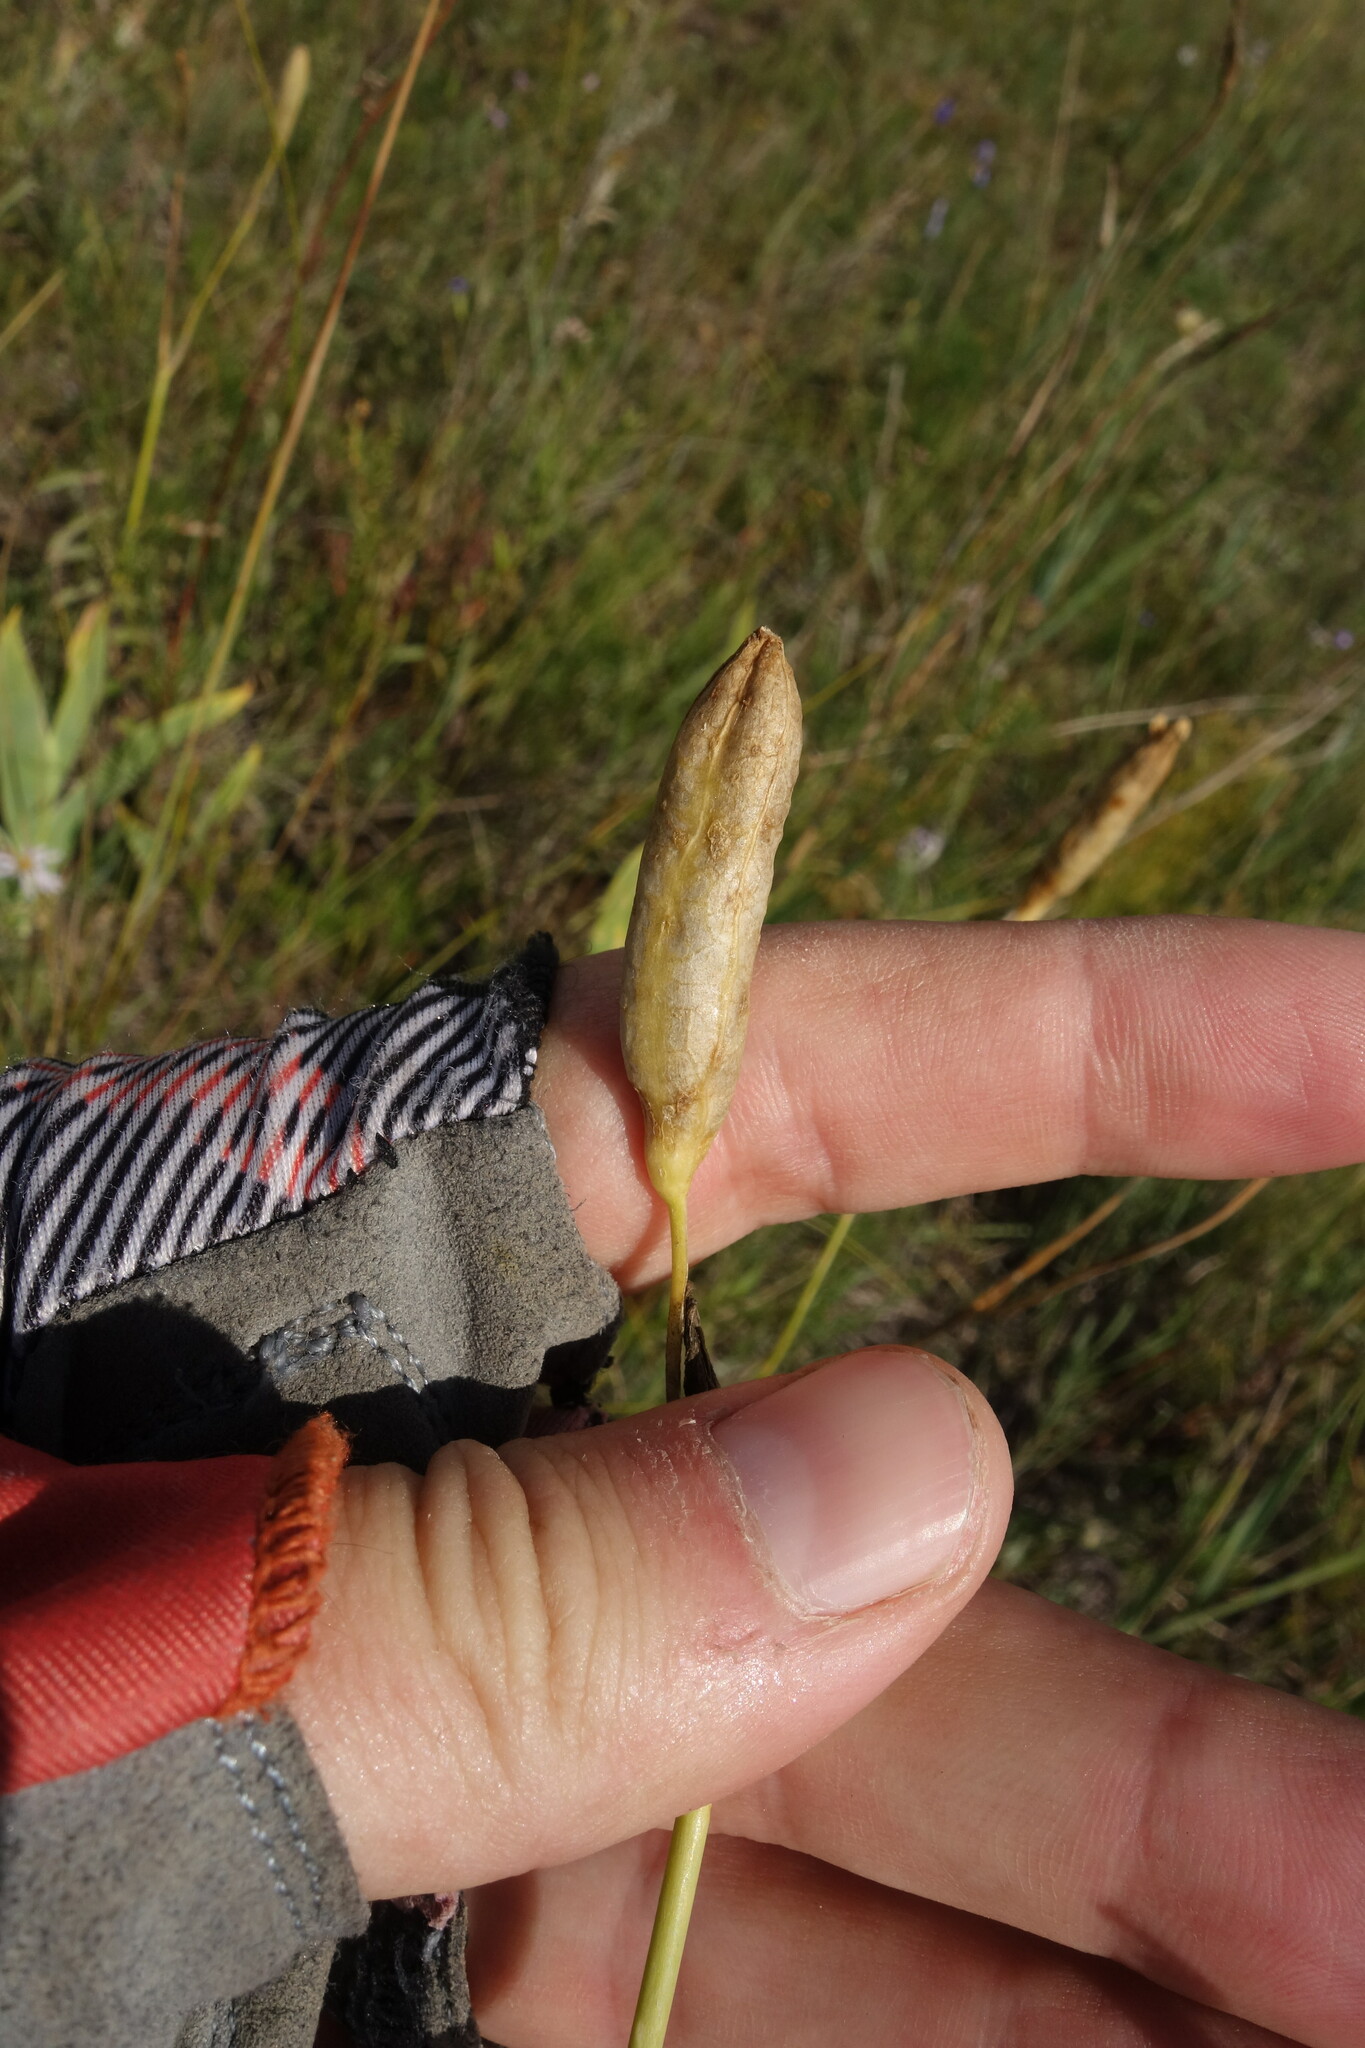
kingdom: Plantae
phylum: Tracheophyta
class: Liliopsida
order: Asparagales
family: Iridaceae
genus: Iris
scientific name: Iris dichotoma
